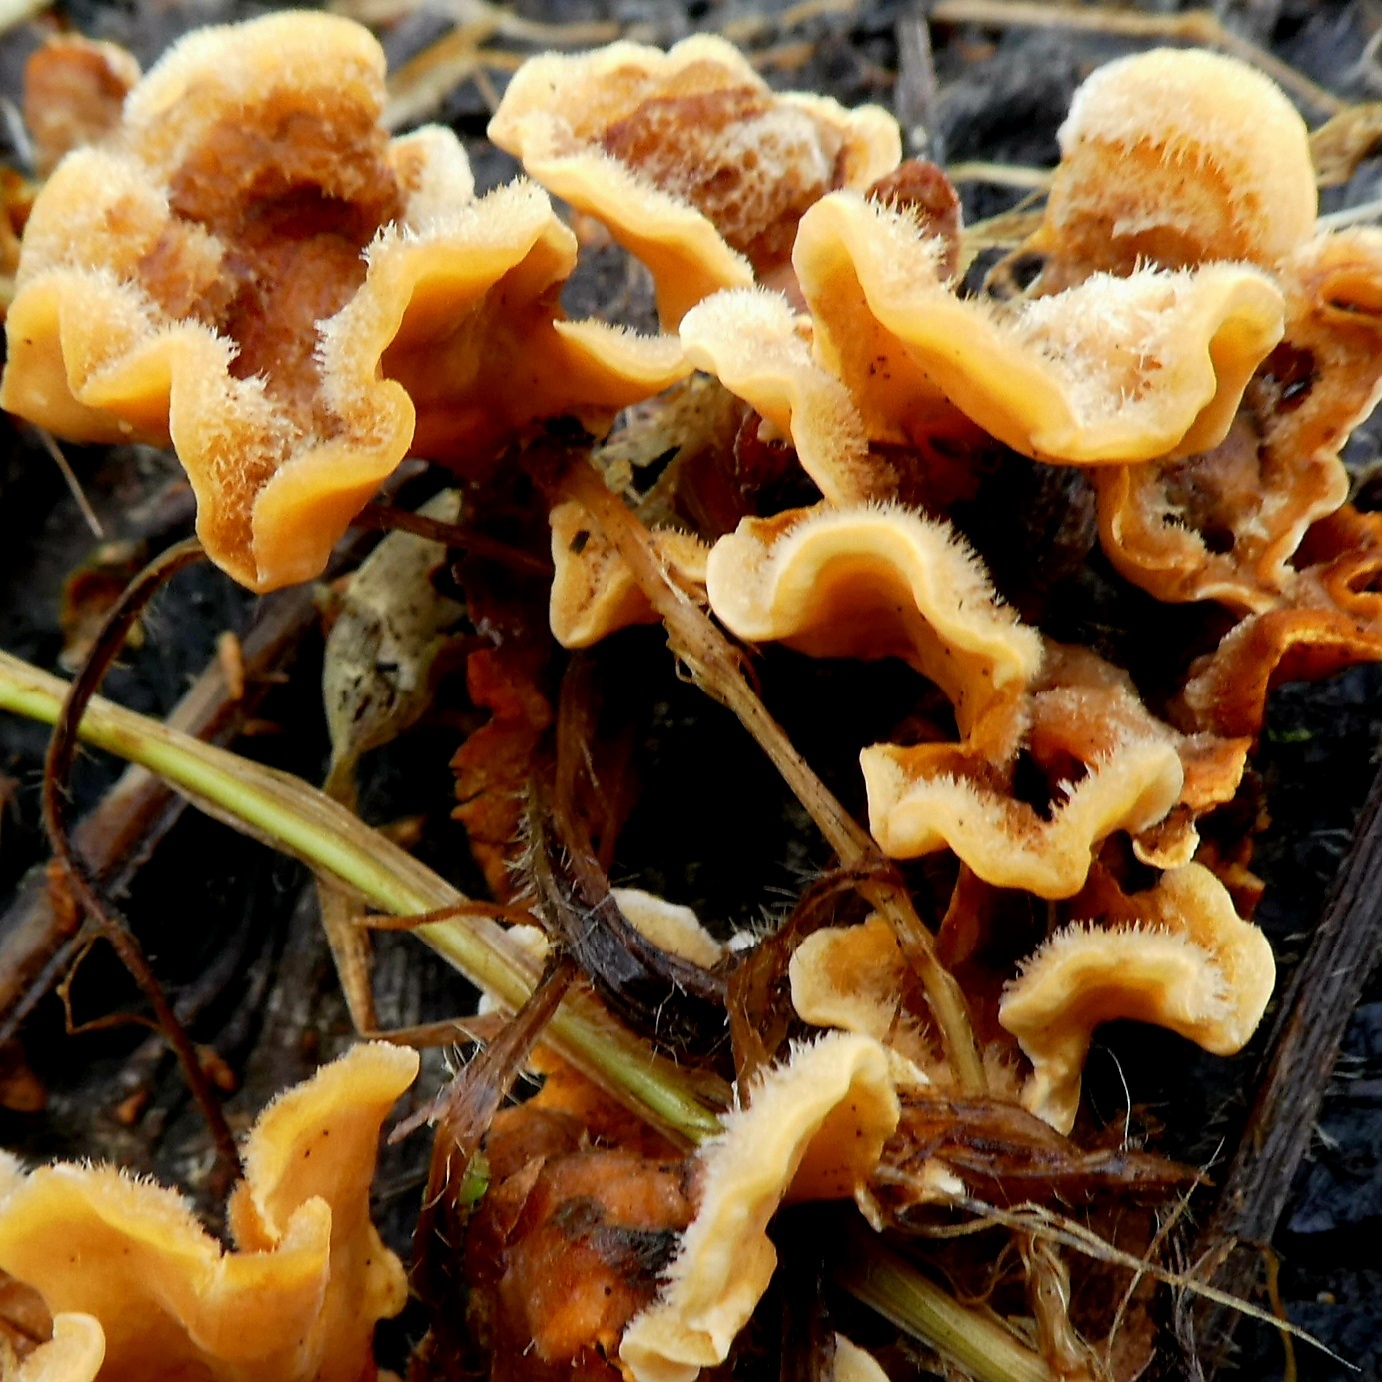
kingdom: Fungi
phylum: Basidiomycota
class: Agaricomycetes
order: Russulales
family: Stereaceae
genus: Stereum
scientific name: Stereum hirsutum
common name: Hairy curtain crust
